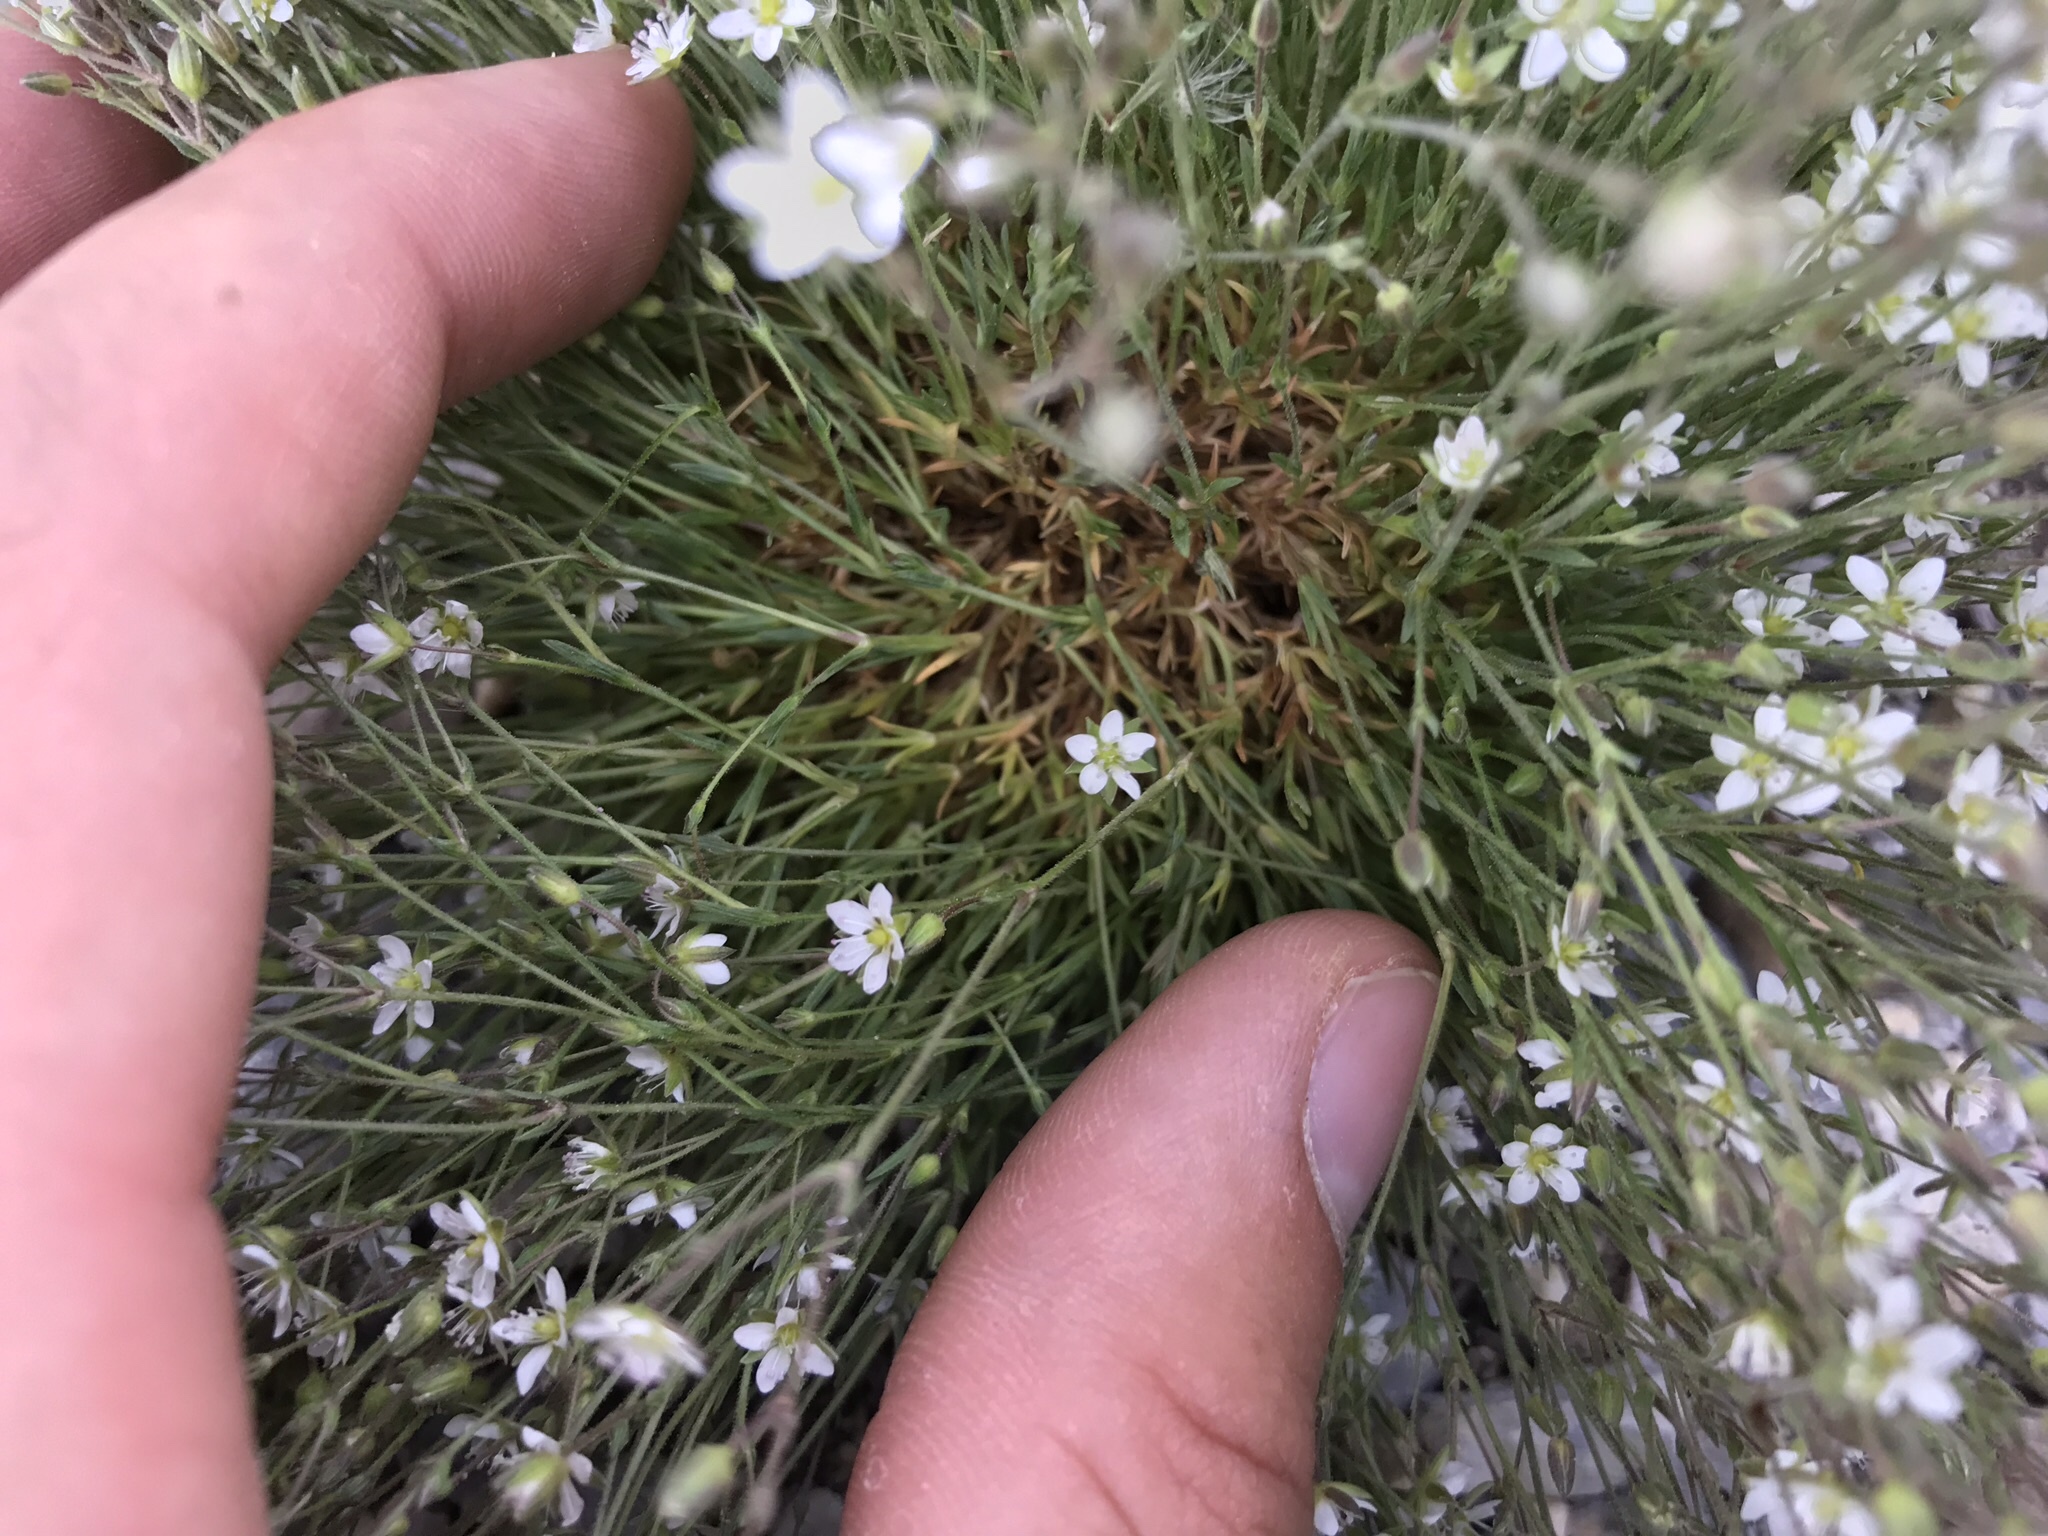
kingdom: Plantae
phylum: Tracheophyta
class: Magnoliopsida
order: Caryophyllales
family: Caryophyllaceae
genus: Sabulina
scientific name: Sabulina rubella
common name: Beautiful sandwort
